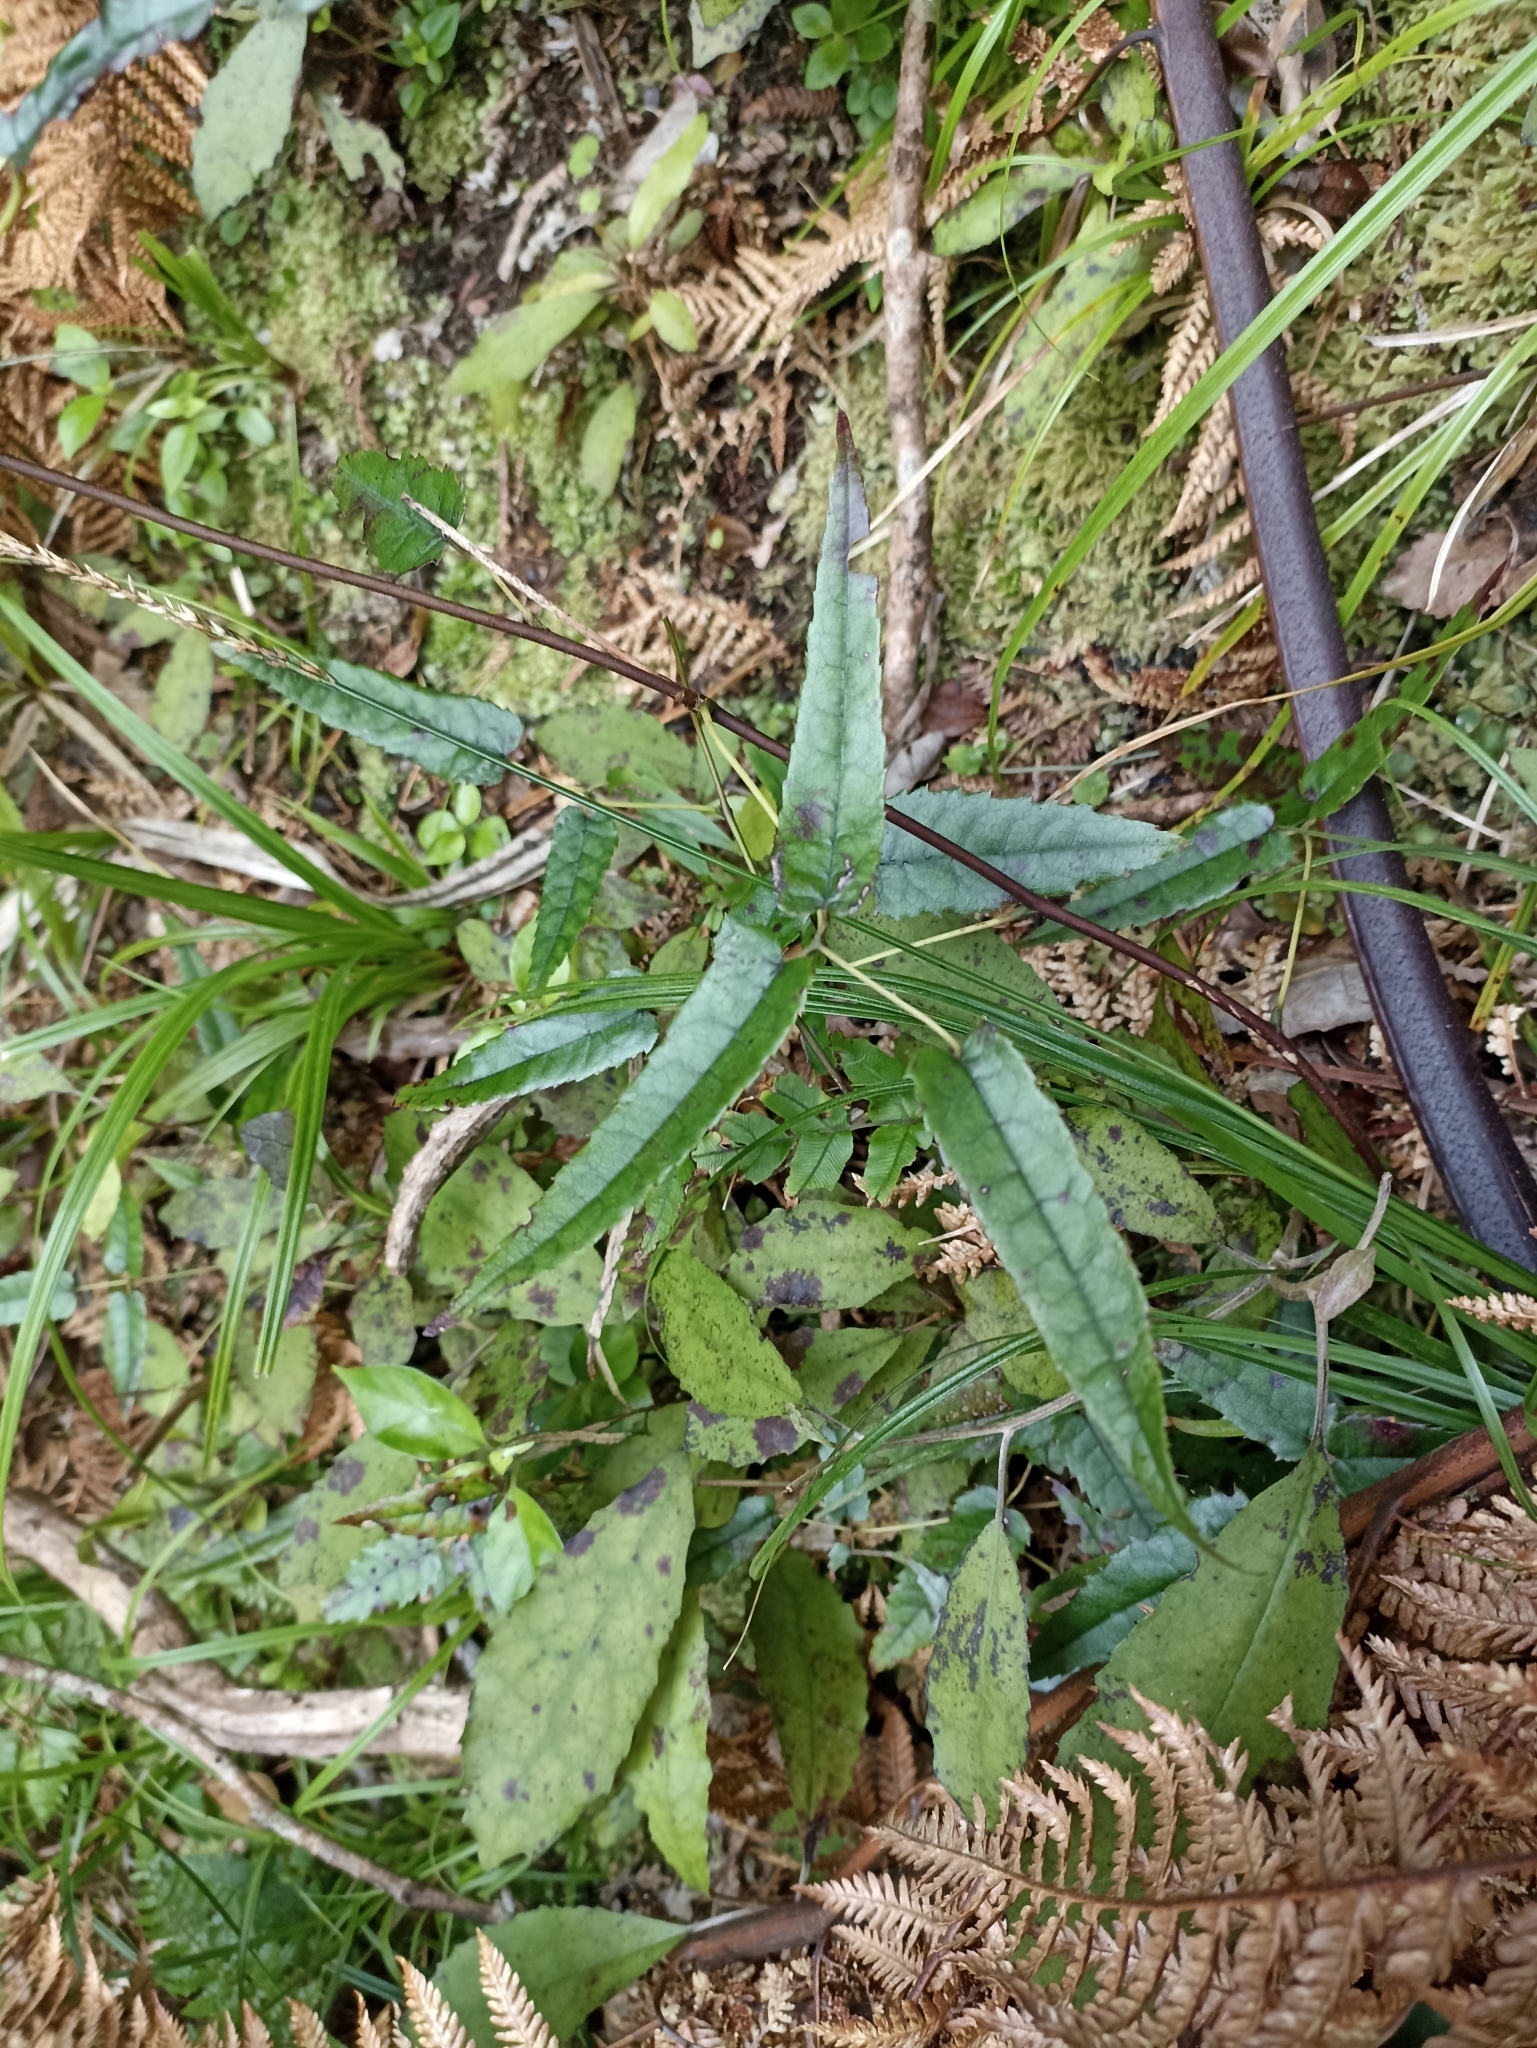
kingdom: Plantae
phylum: Tracheophyta
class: Magnoliopsida
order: Rosales
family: Rosaceae
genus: Rubus
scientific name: Rubus cissoides
